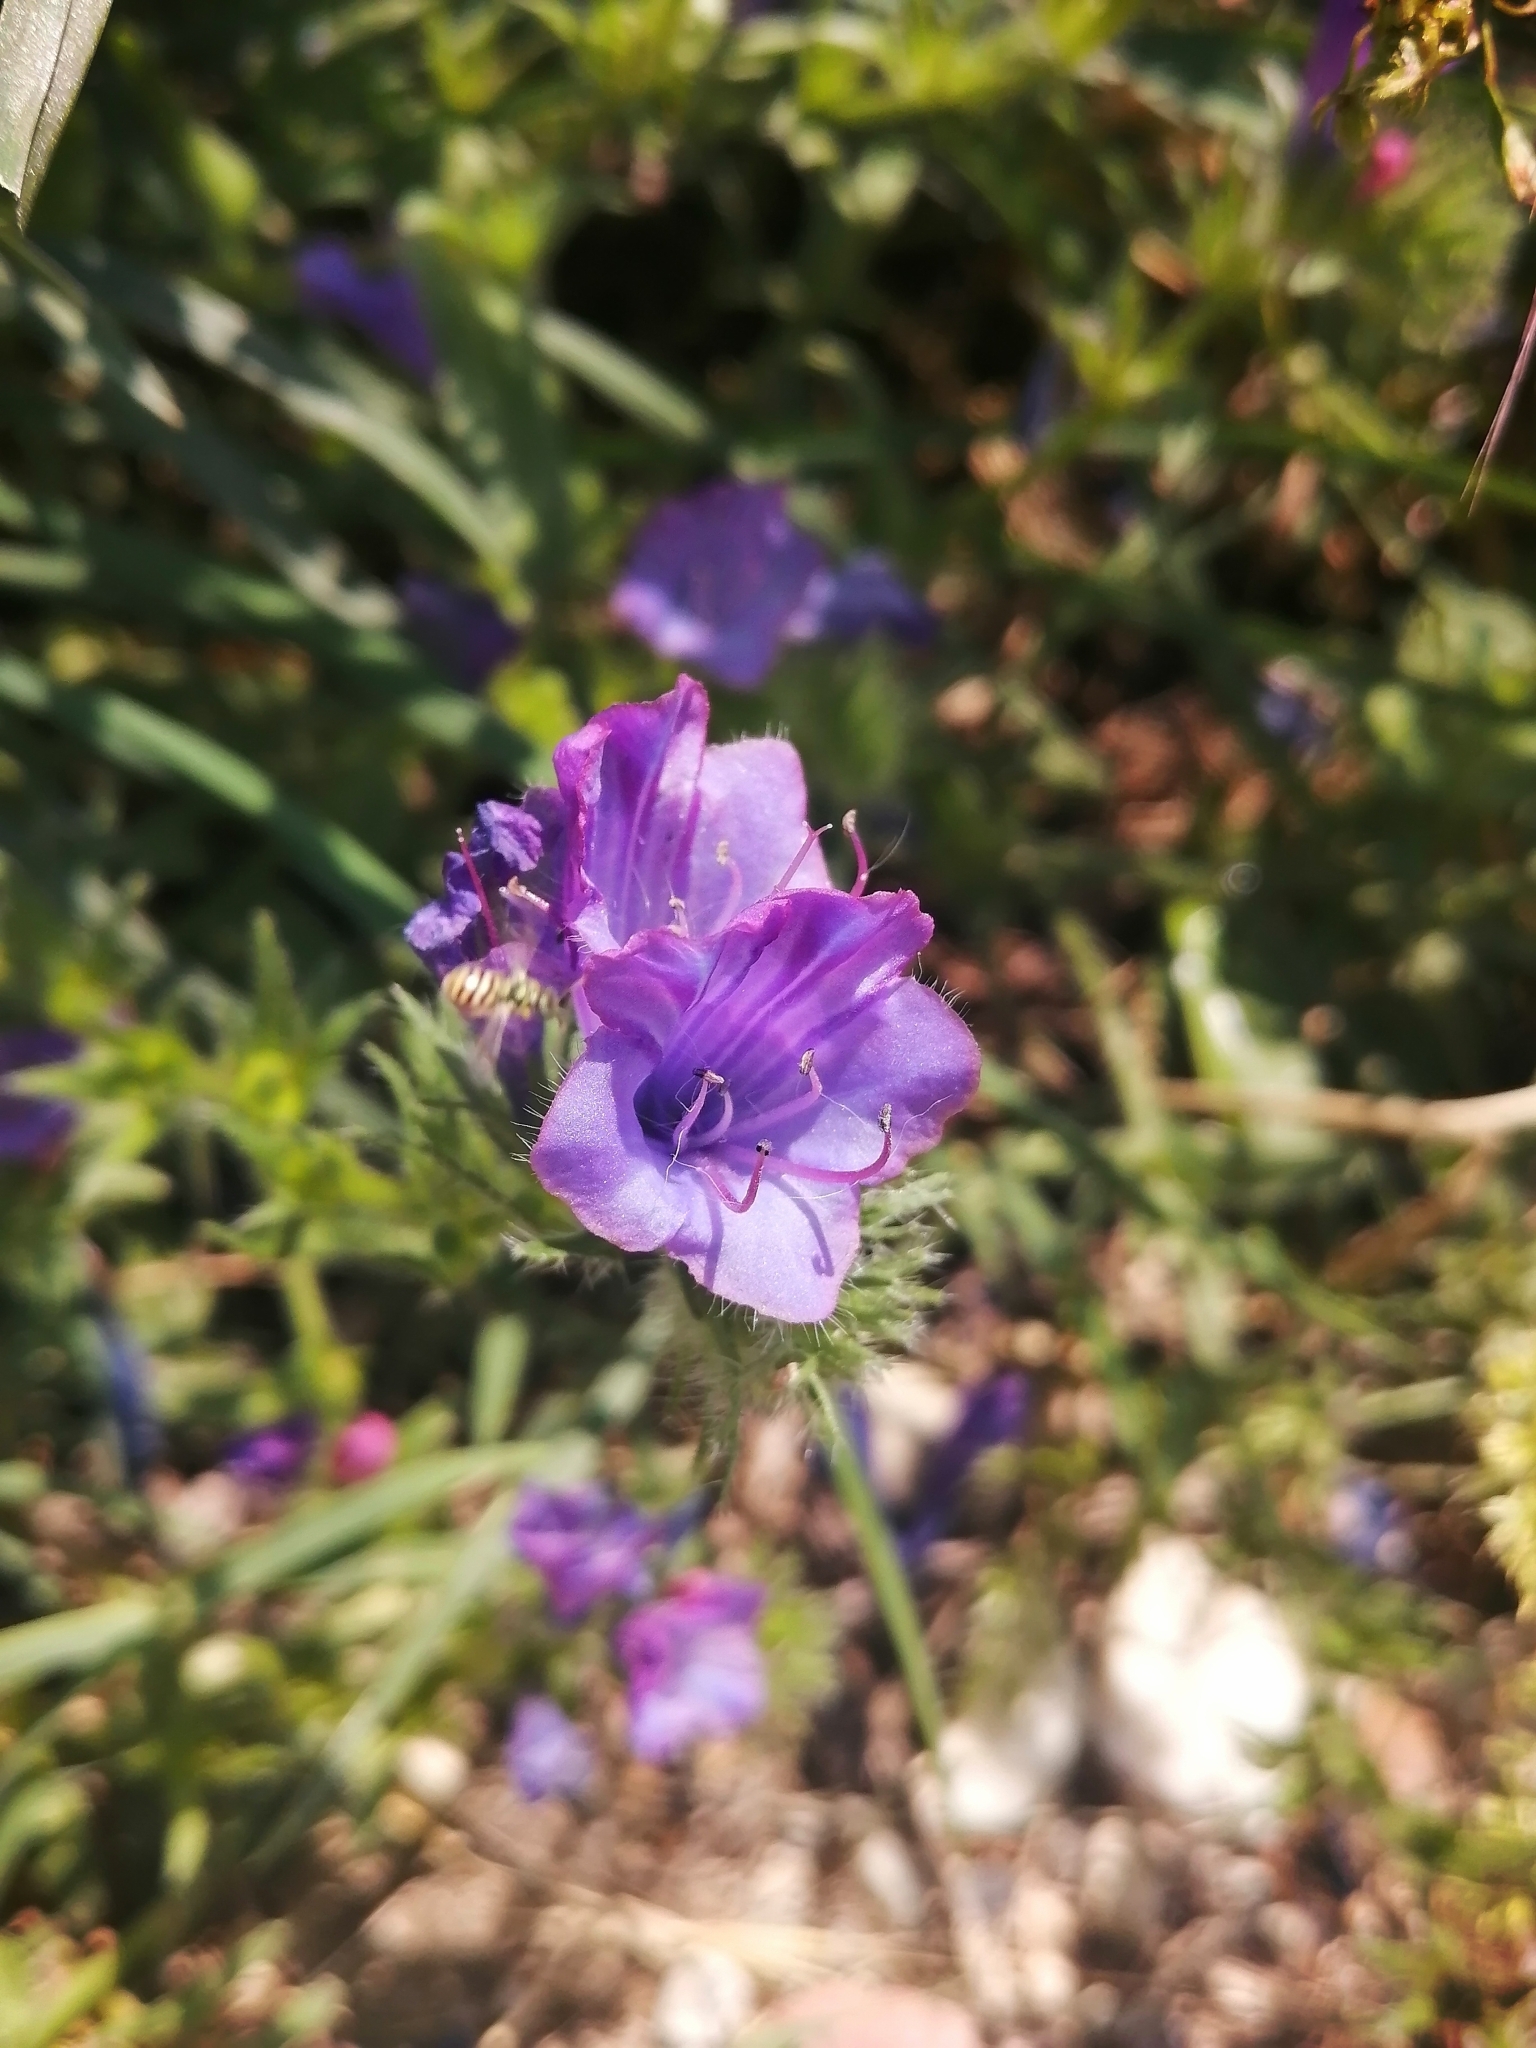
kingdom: Plantae
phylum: Tracheophyta
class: Magnoliopsida
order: Boraginales
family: Boraginaceae
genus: Echium
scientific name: Echium plantagineum
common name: Purple viper's-bugloss
